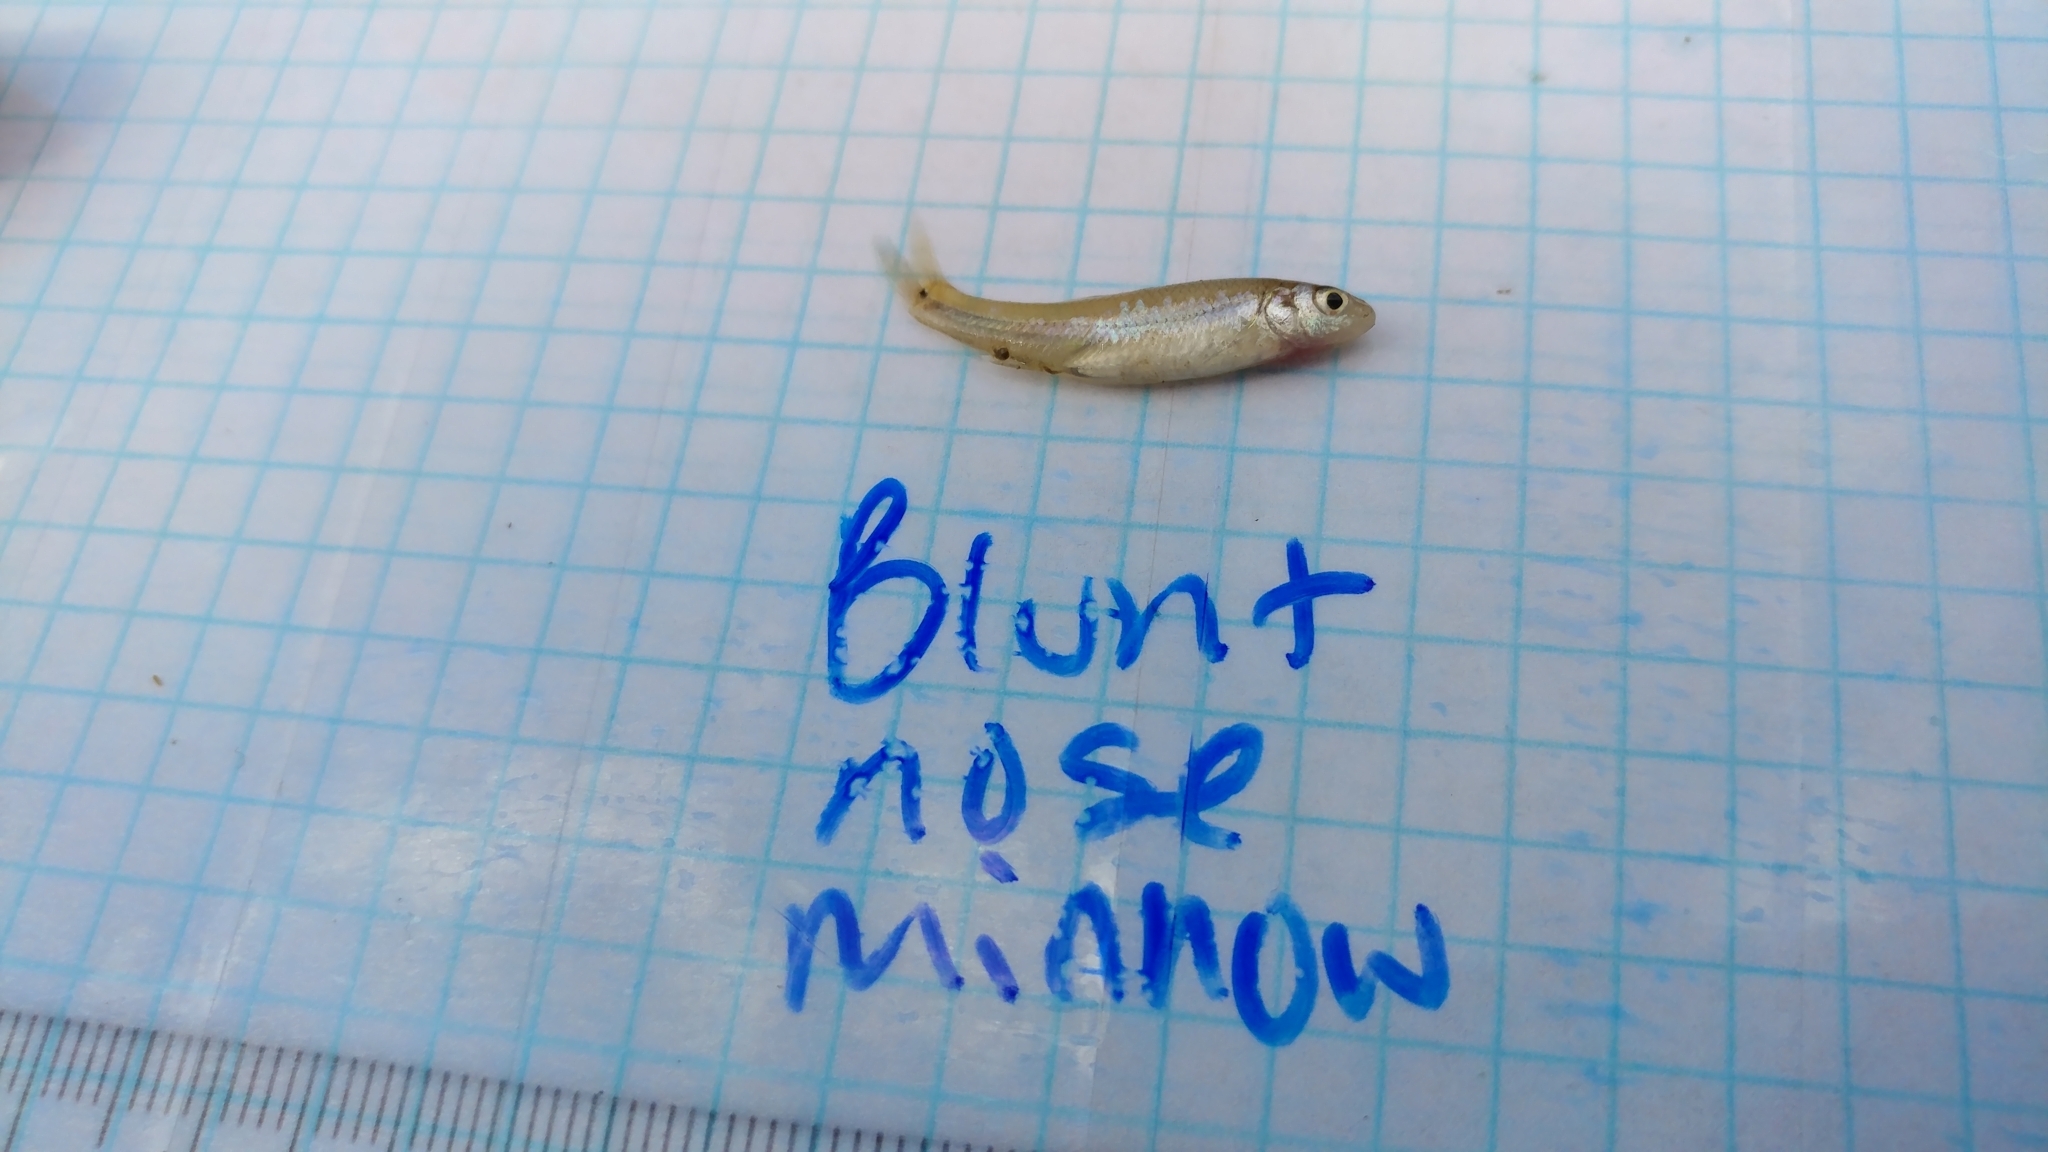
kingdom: Animalia
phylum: Chordata
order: Cypriniformes
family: Cyprinidae
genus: Pimephales
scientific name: Pimephales vigilax
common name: Bullhead minnow
